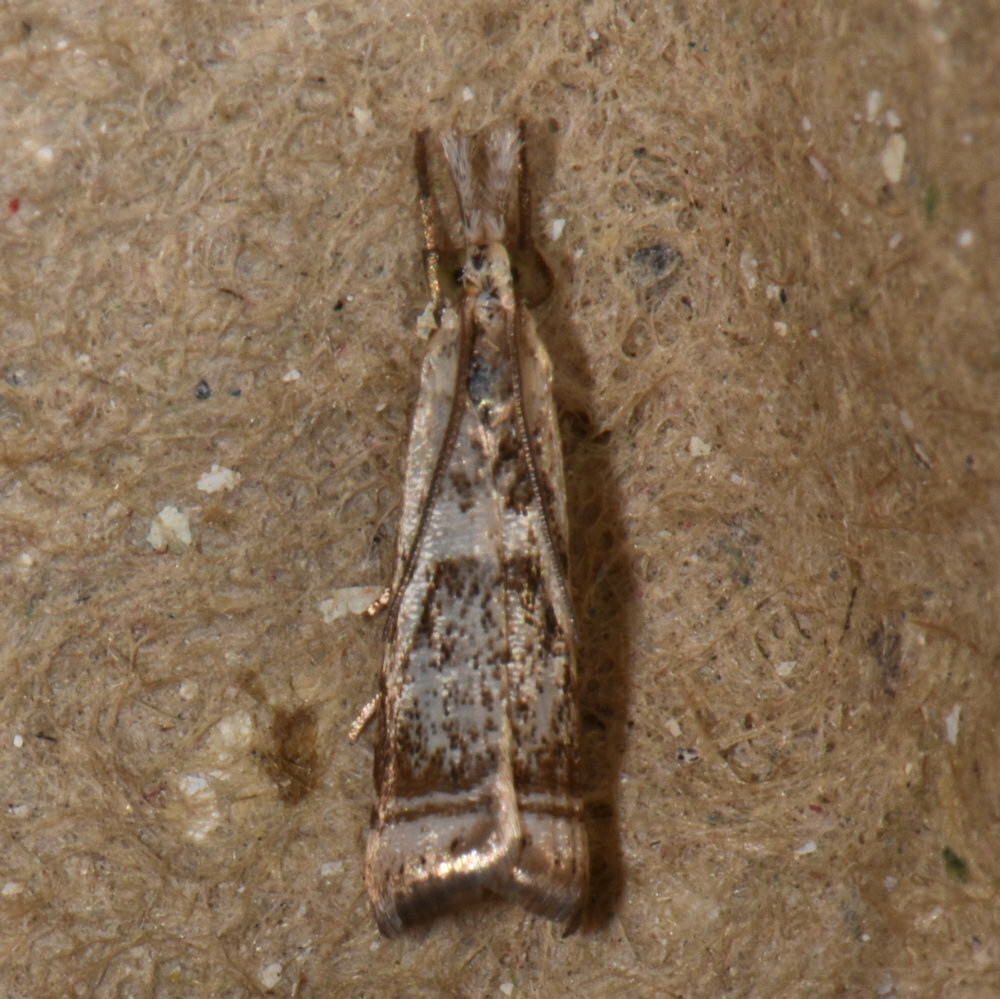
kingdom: Animalia
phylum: Arthropoda
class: Insecta
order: Lepidoptera
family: Crambidae
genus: Microcrambus
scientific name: Microcrambus elegans
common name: Elegant grass-veneer
